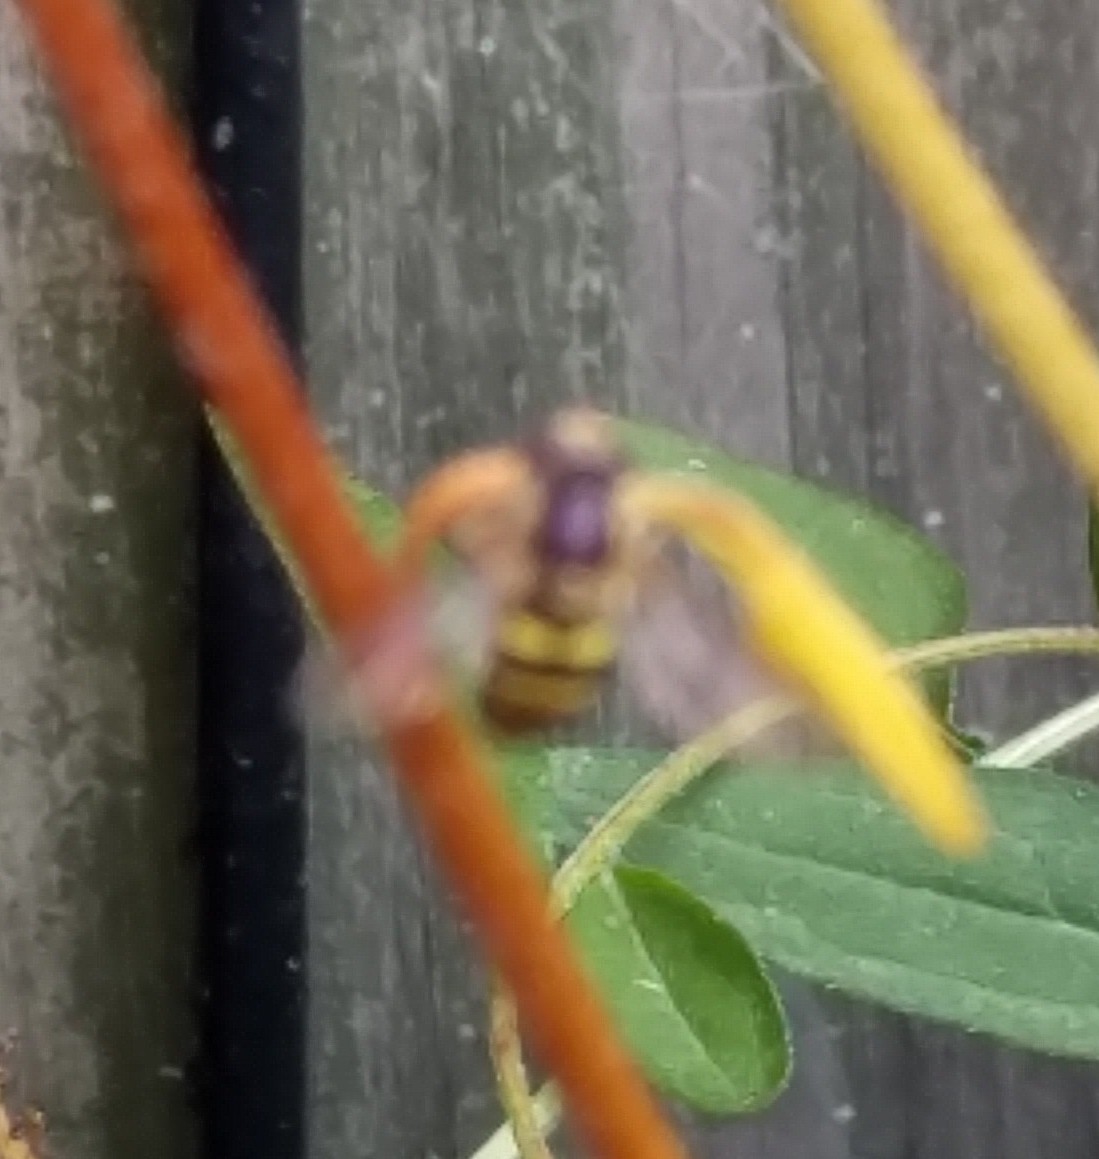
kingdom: Animalia
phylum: Arthropoda
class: Insecta
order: Diptera
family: Syrphidae
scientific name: Syrphidae
